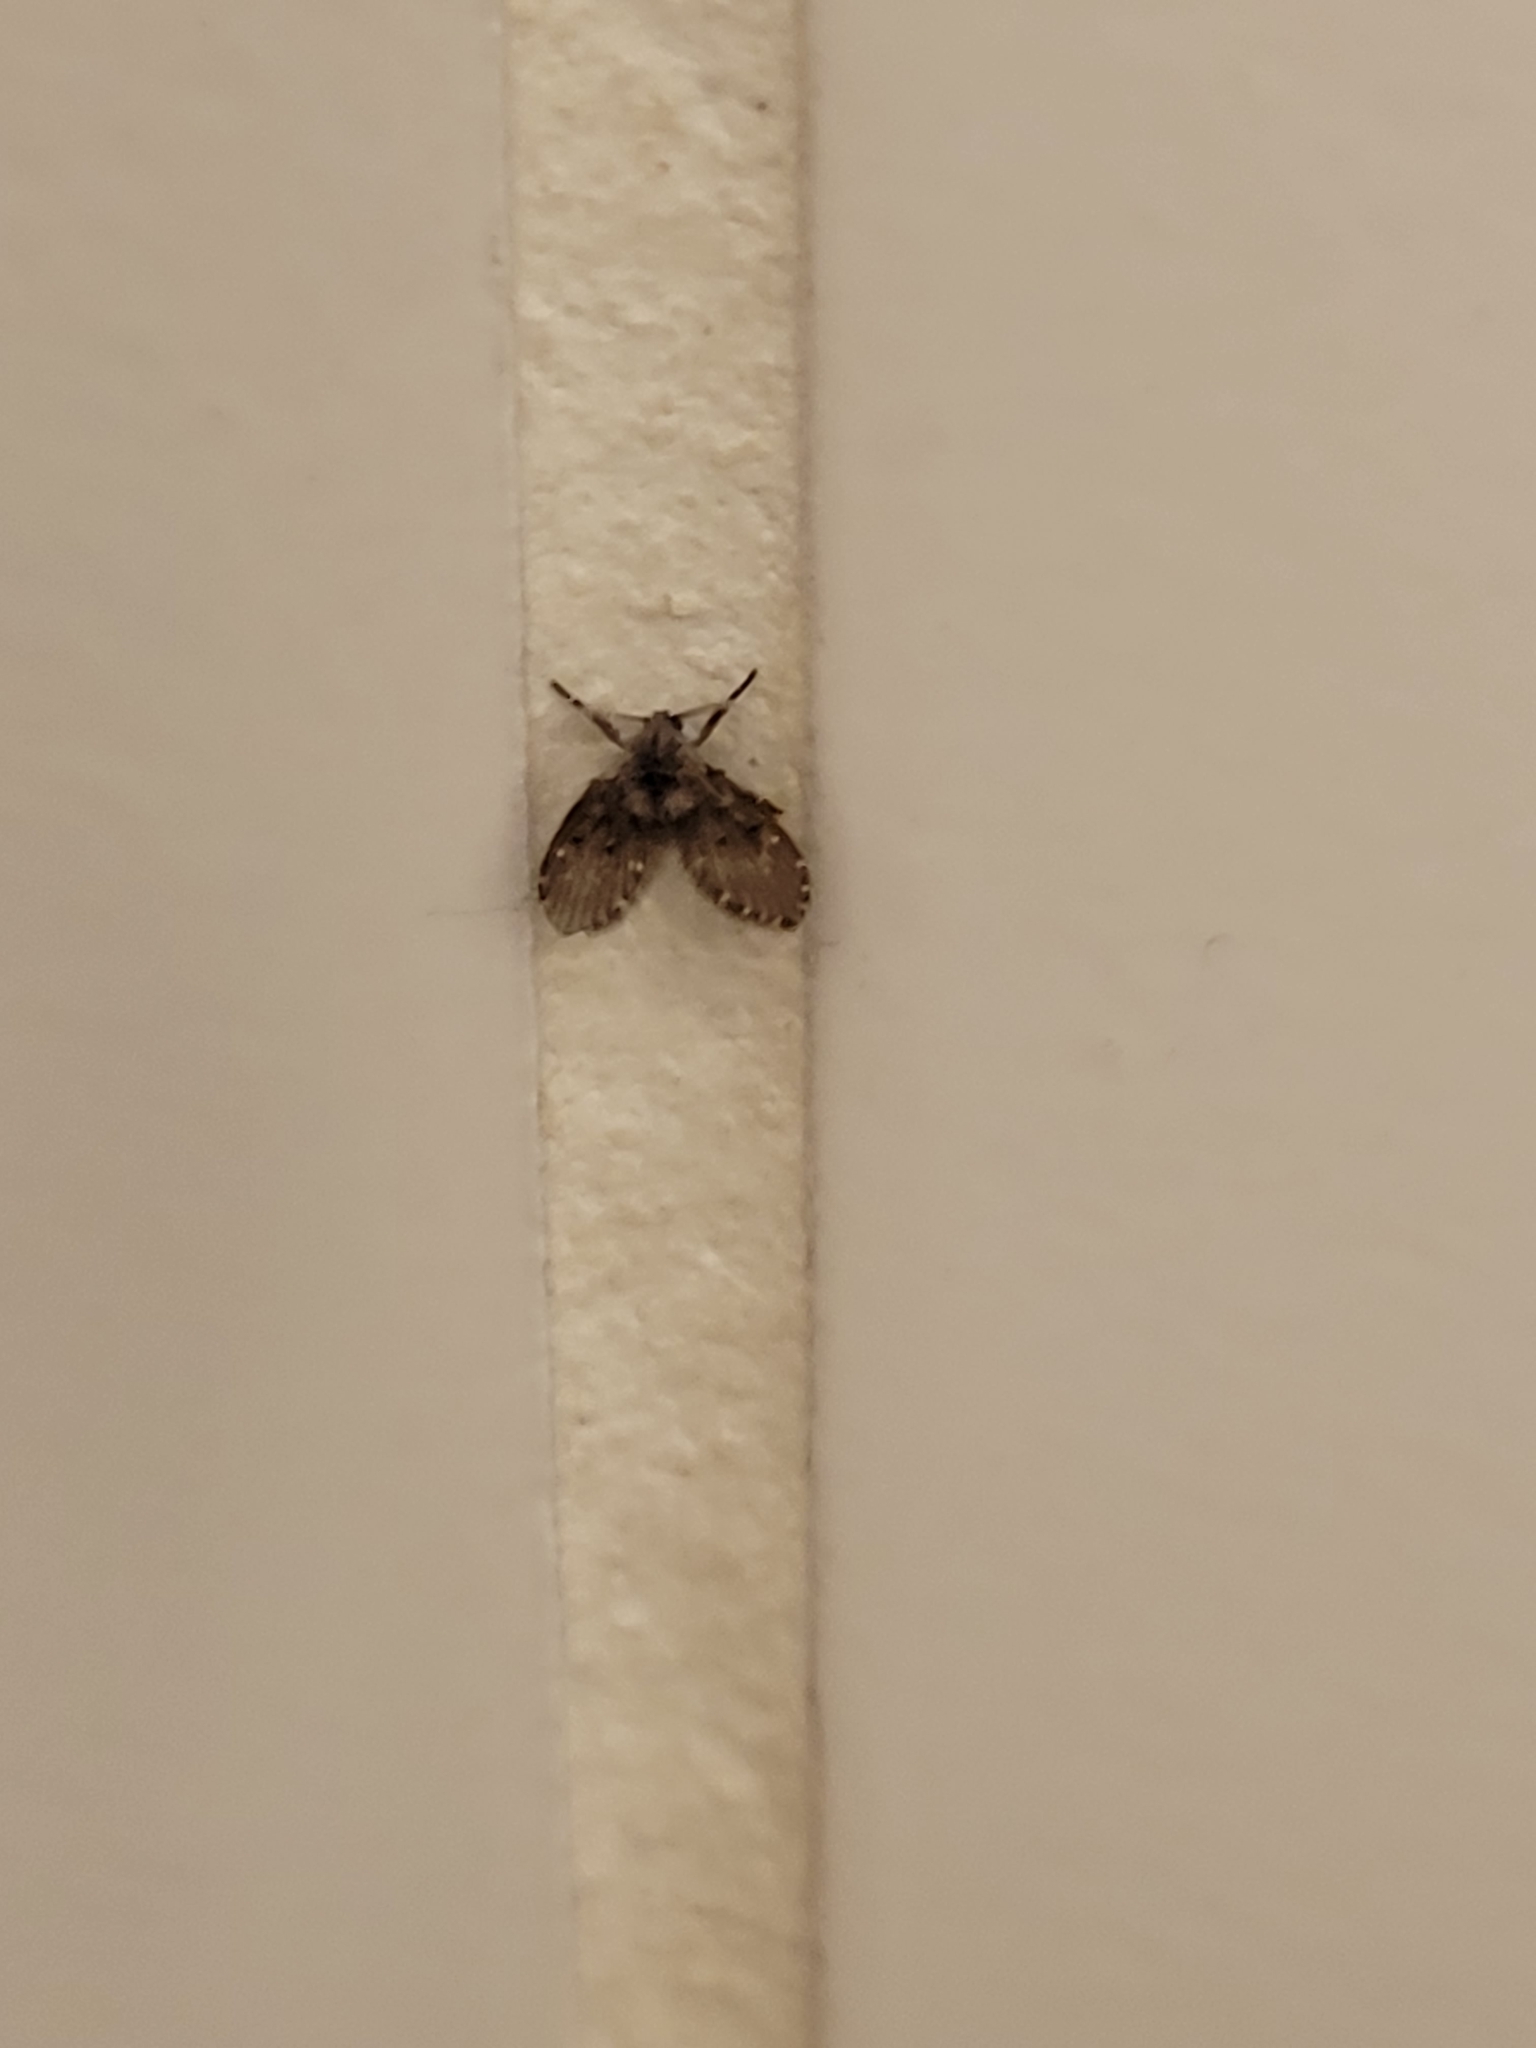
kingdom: Animalia
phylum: Arthropoda
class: Insecta
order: Diptera
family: Psychodidae
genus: Clogmia
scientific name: Clogmia albipunctatus
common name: White-spotted moth fly
